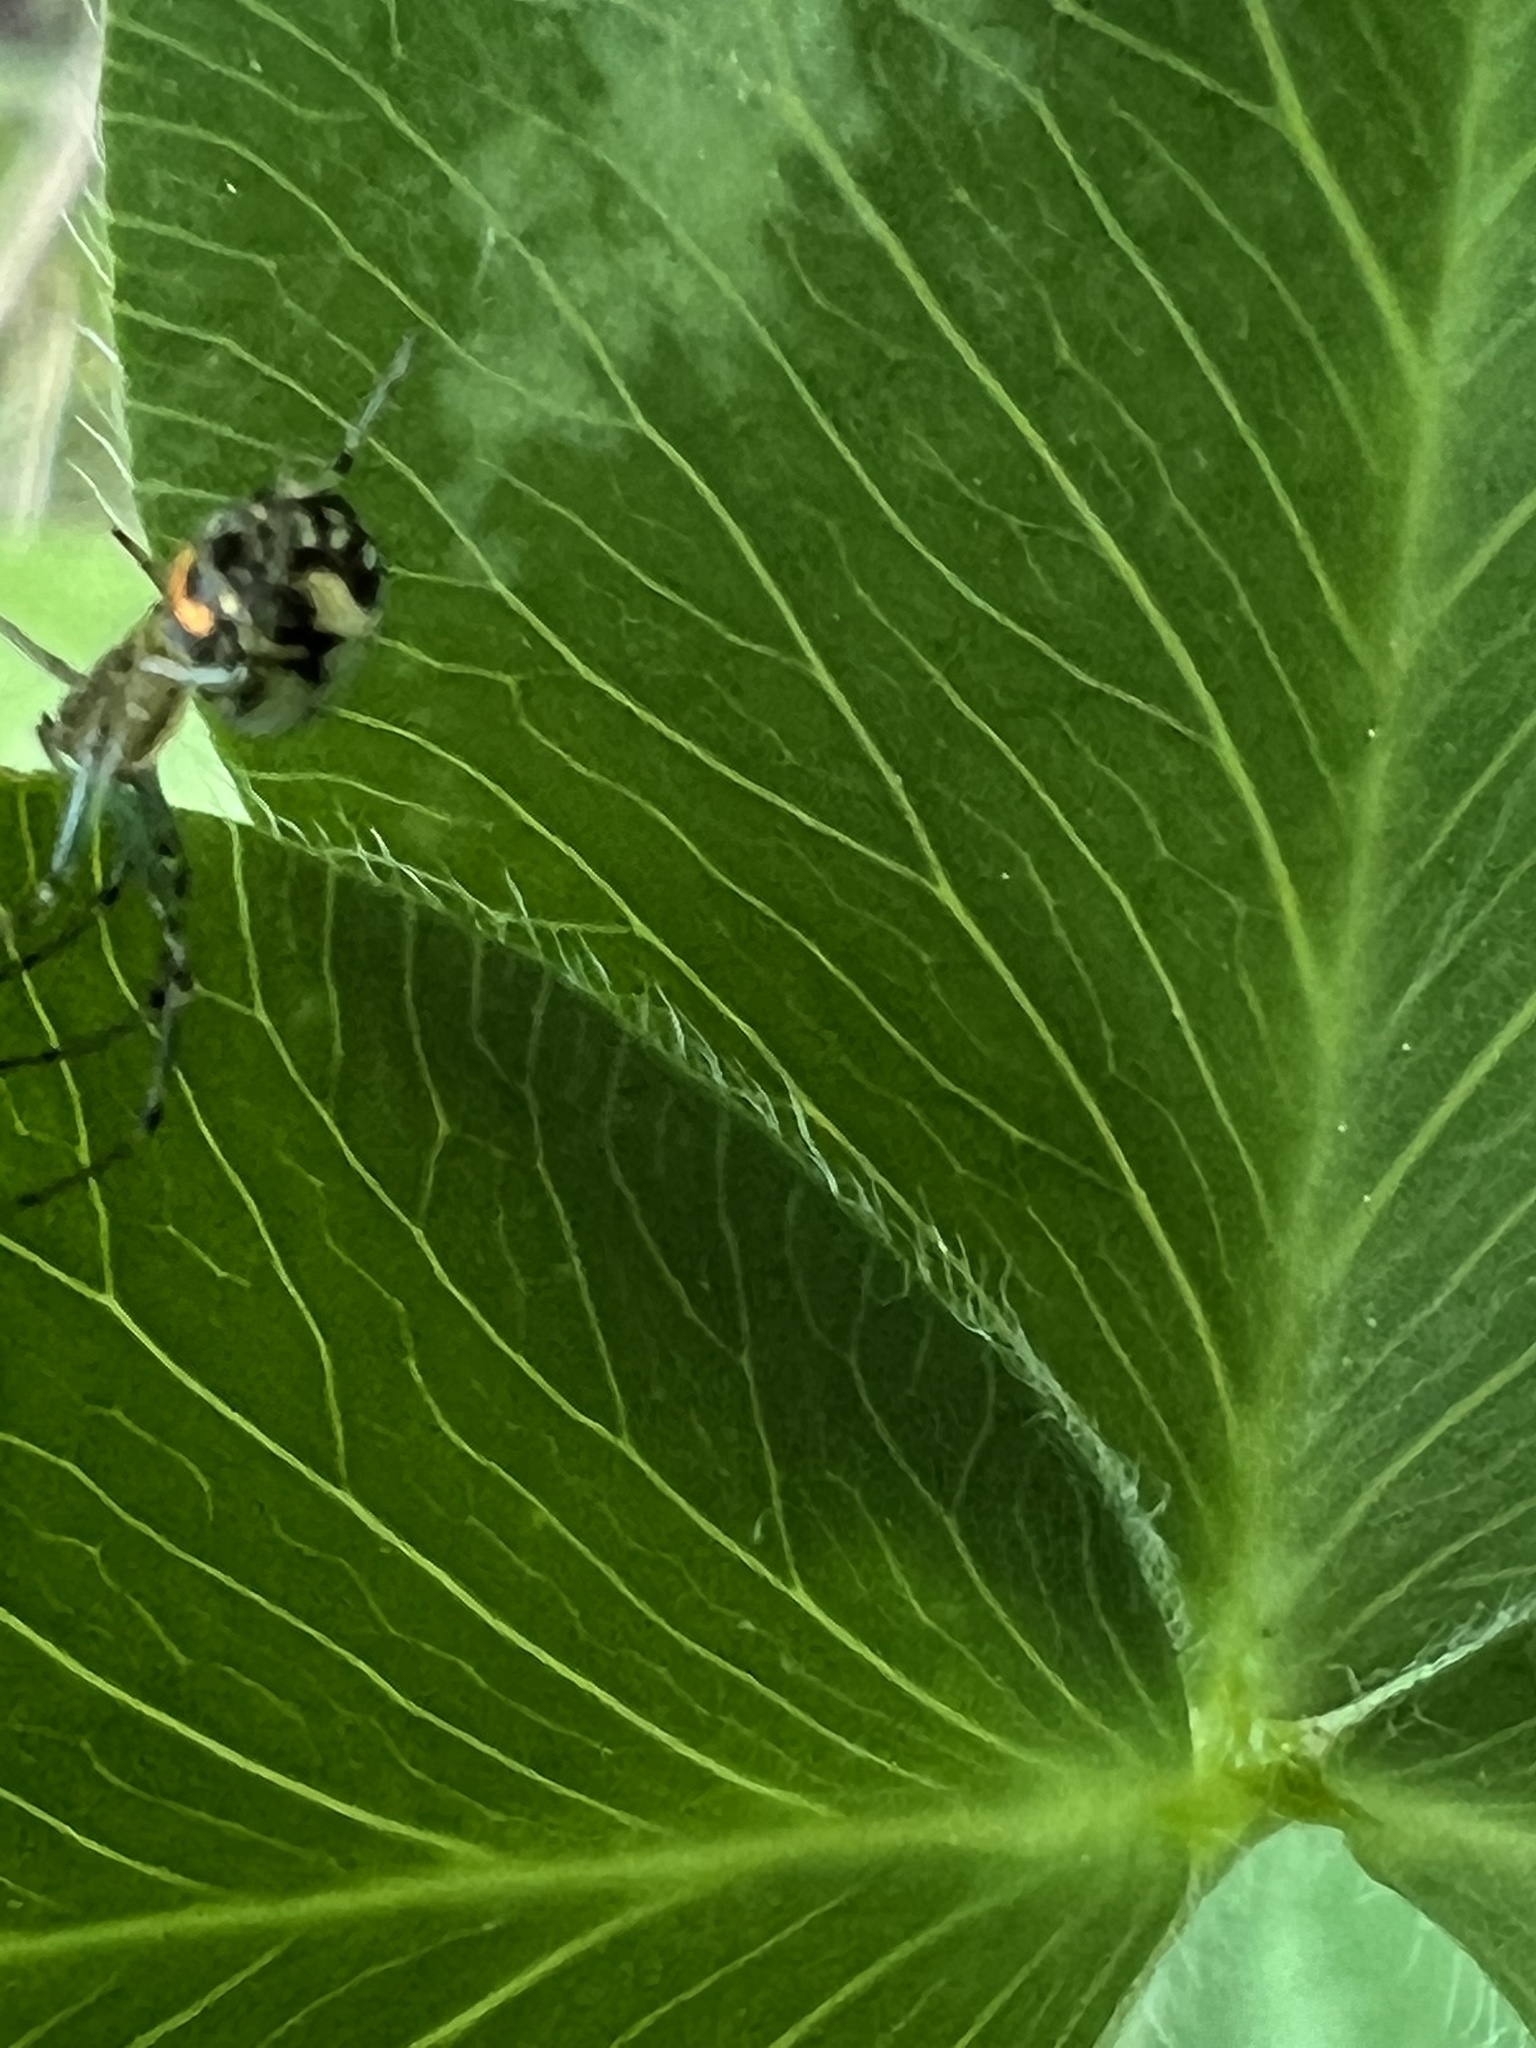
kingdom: Animalia
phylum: Arthropoda
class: Arachnida
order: Araneae
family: Tetragnathidae
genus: Leucauge
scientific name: Leucauge venusta
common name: Longjawed orb weavers
